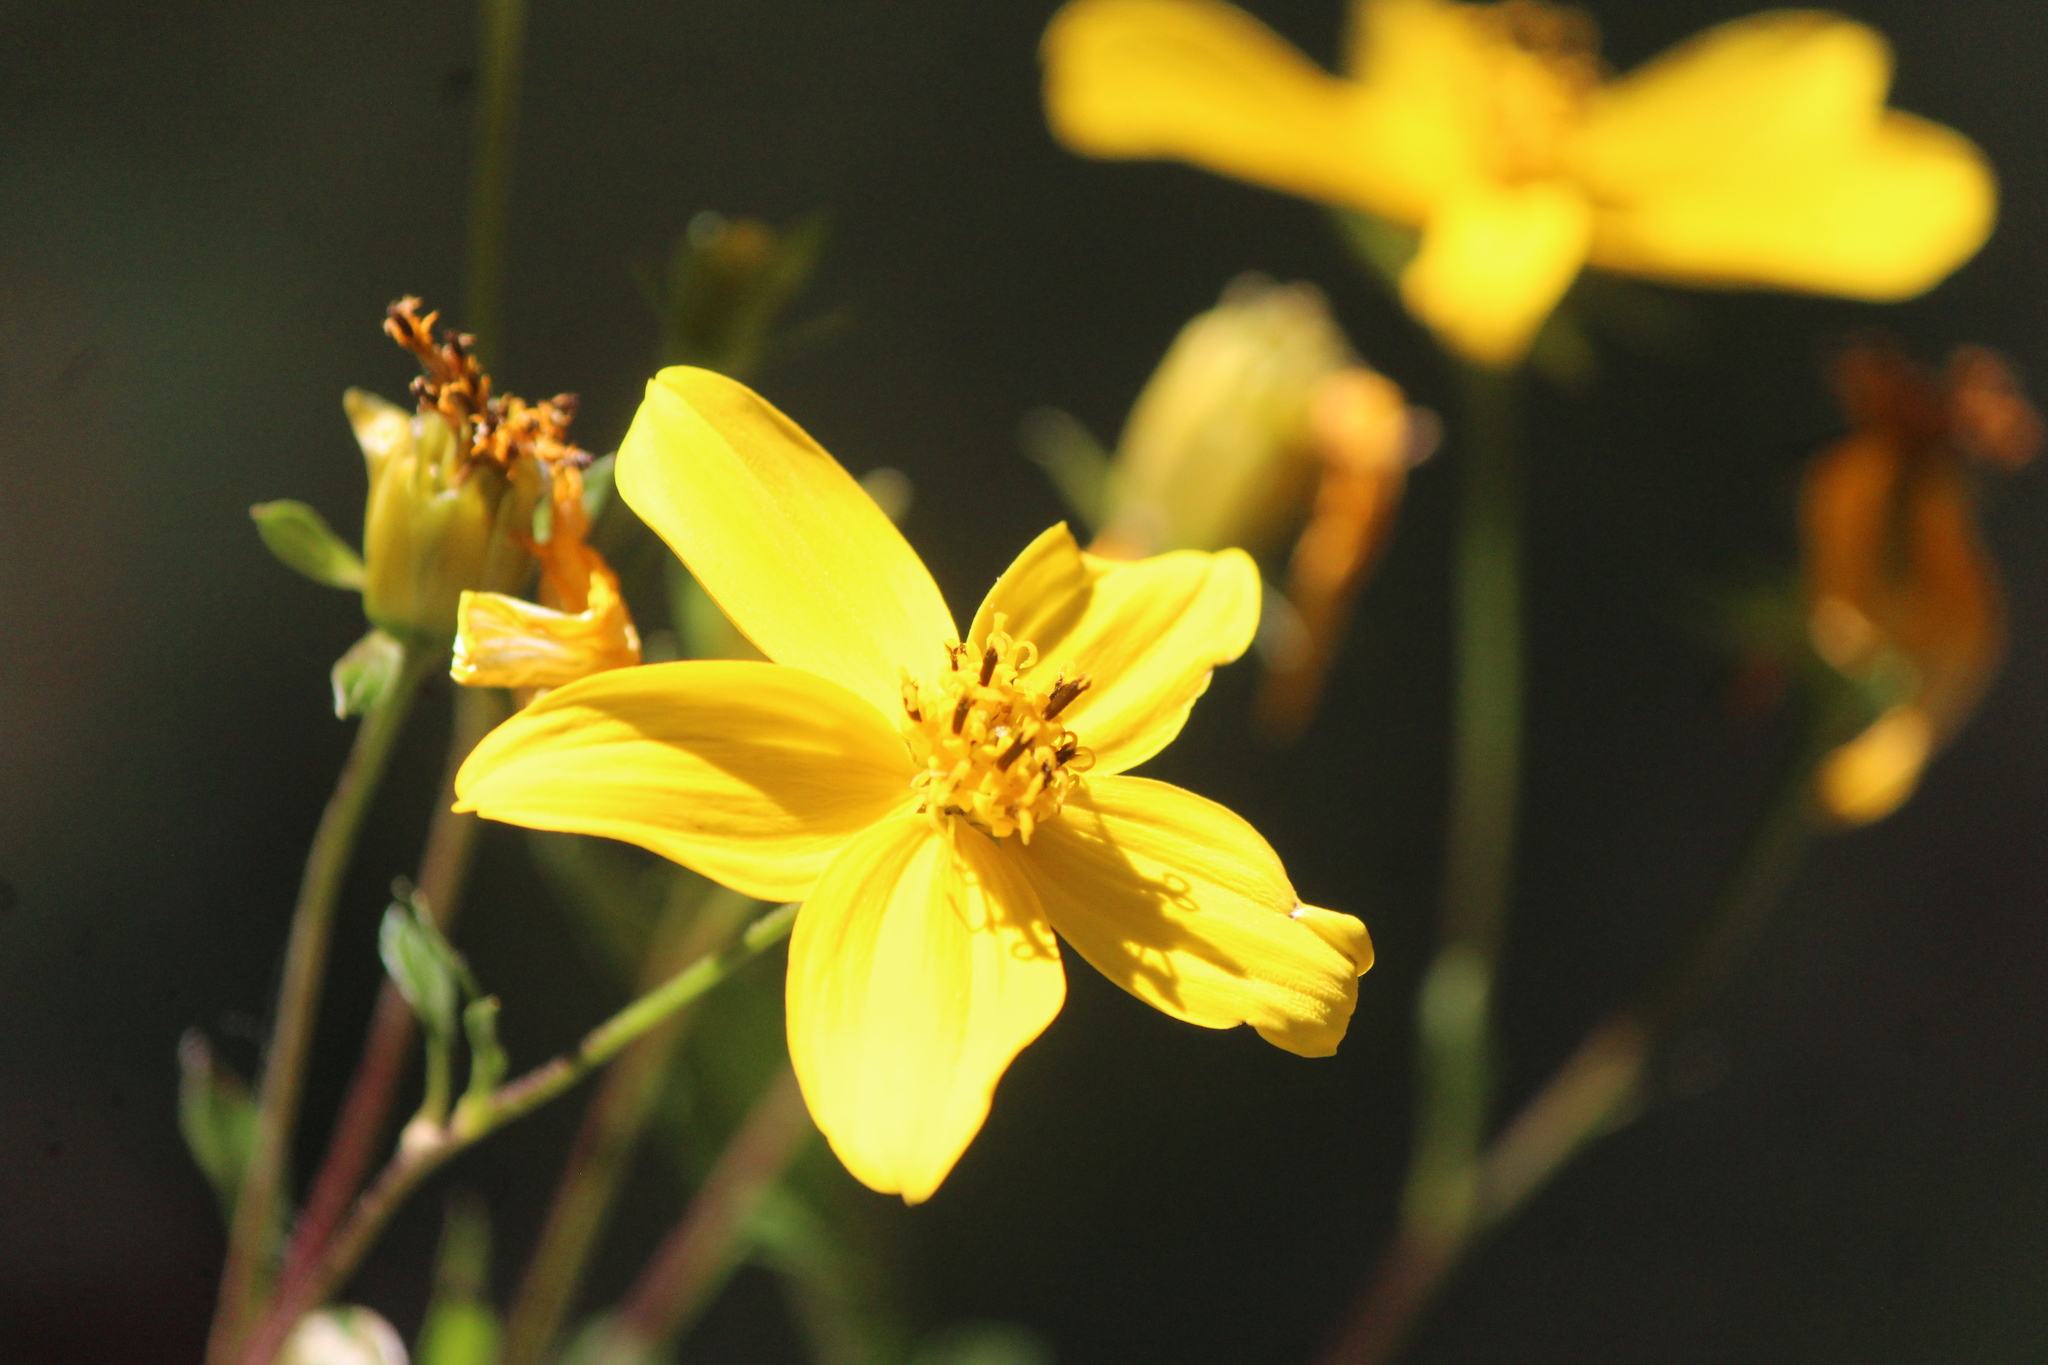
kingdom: Plantae
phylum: Tracheophyta
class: Magnoliopsida
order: Asterales
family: Asteraceae
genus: Electranthera
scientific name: Electranthera mutica
